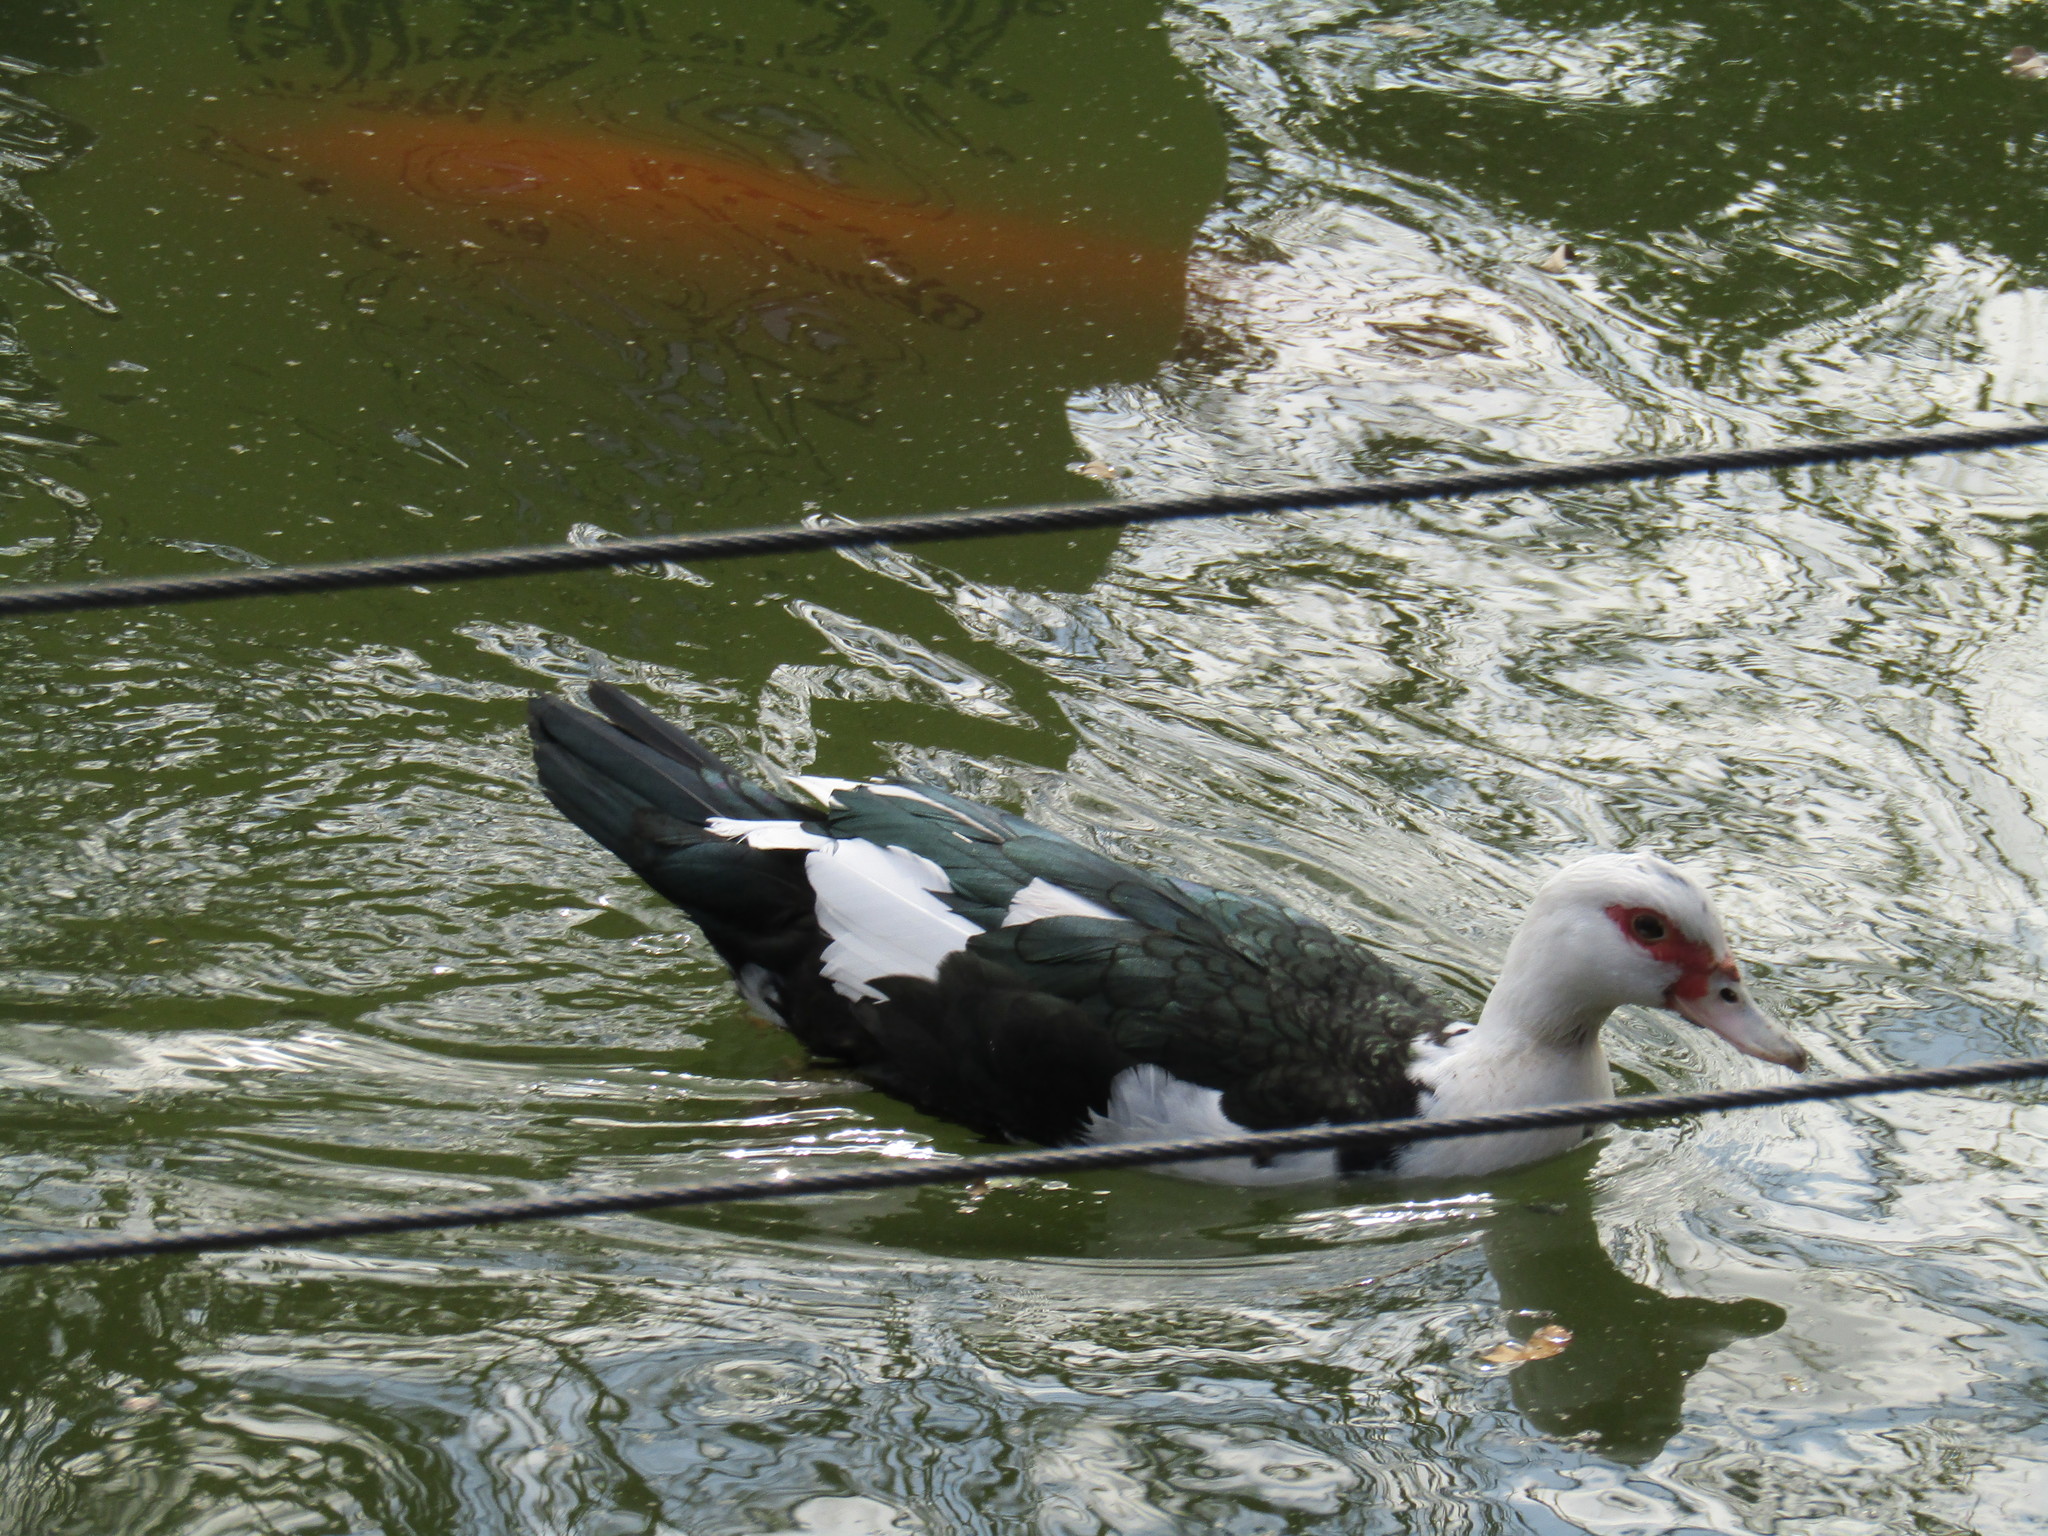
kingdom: Animalia
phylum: Chordata
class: Aves
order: Anseriformes
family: Anatidae
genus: Cairina
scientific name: Cairina moschata
